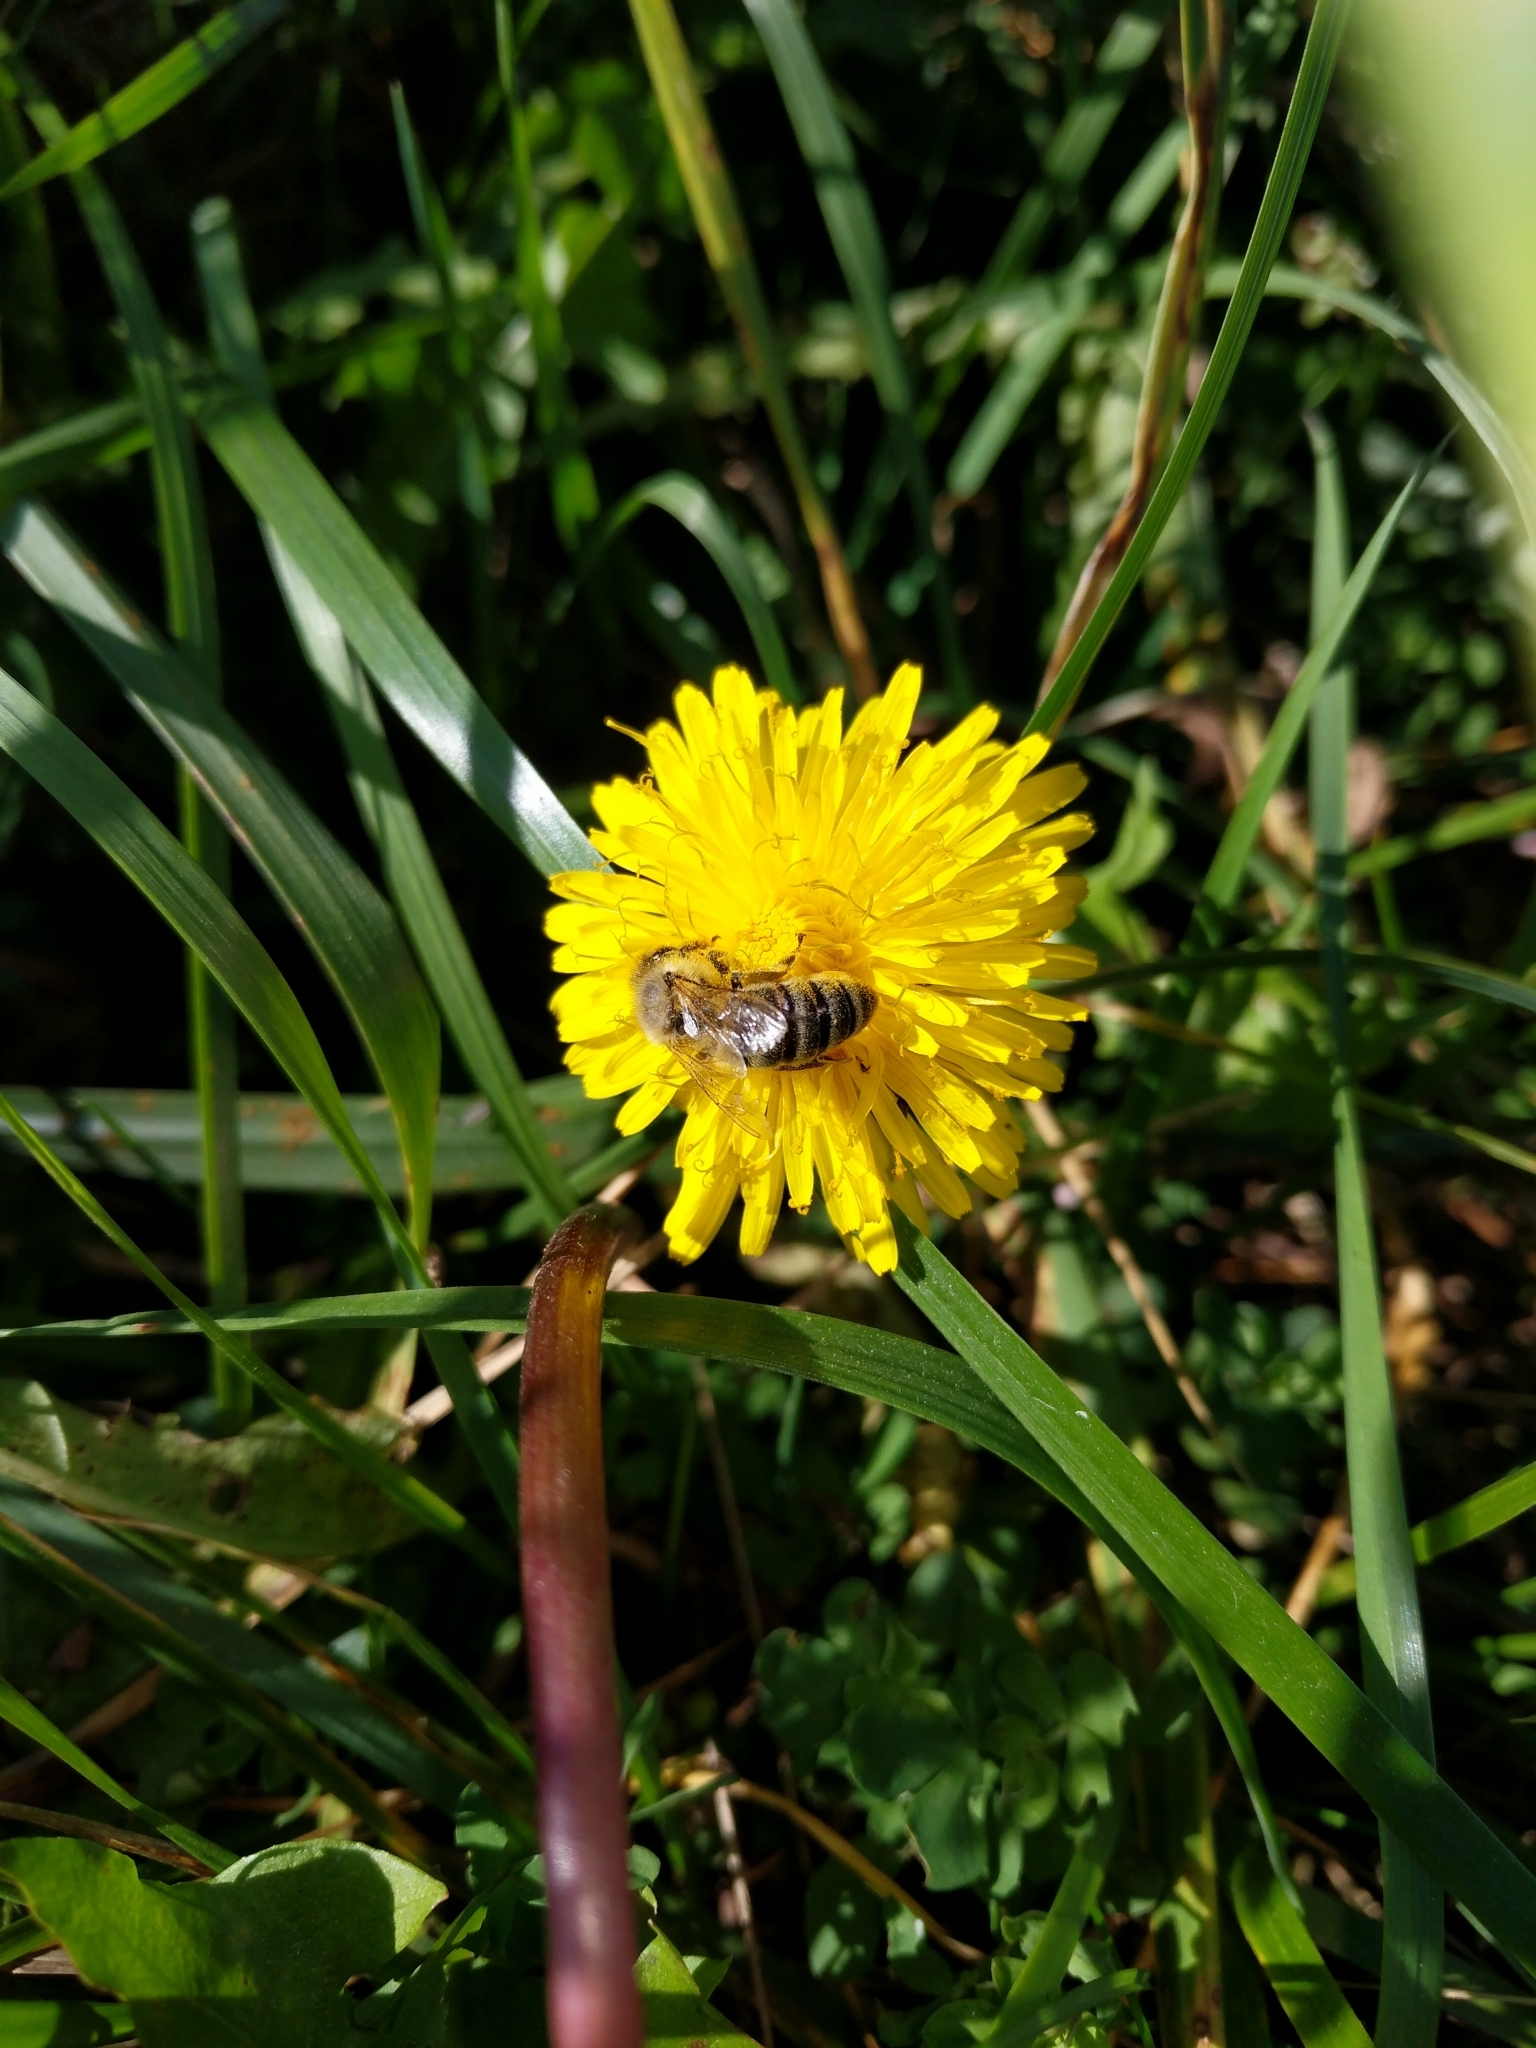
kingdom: Animalia
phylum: Arthropoda
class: Insecta
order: Hymenoptera
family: Apidae
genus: Apis
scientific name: Apis mellifera
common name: Honey bee
